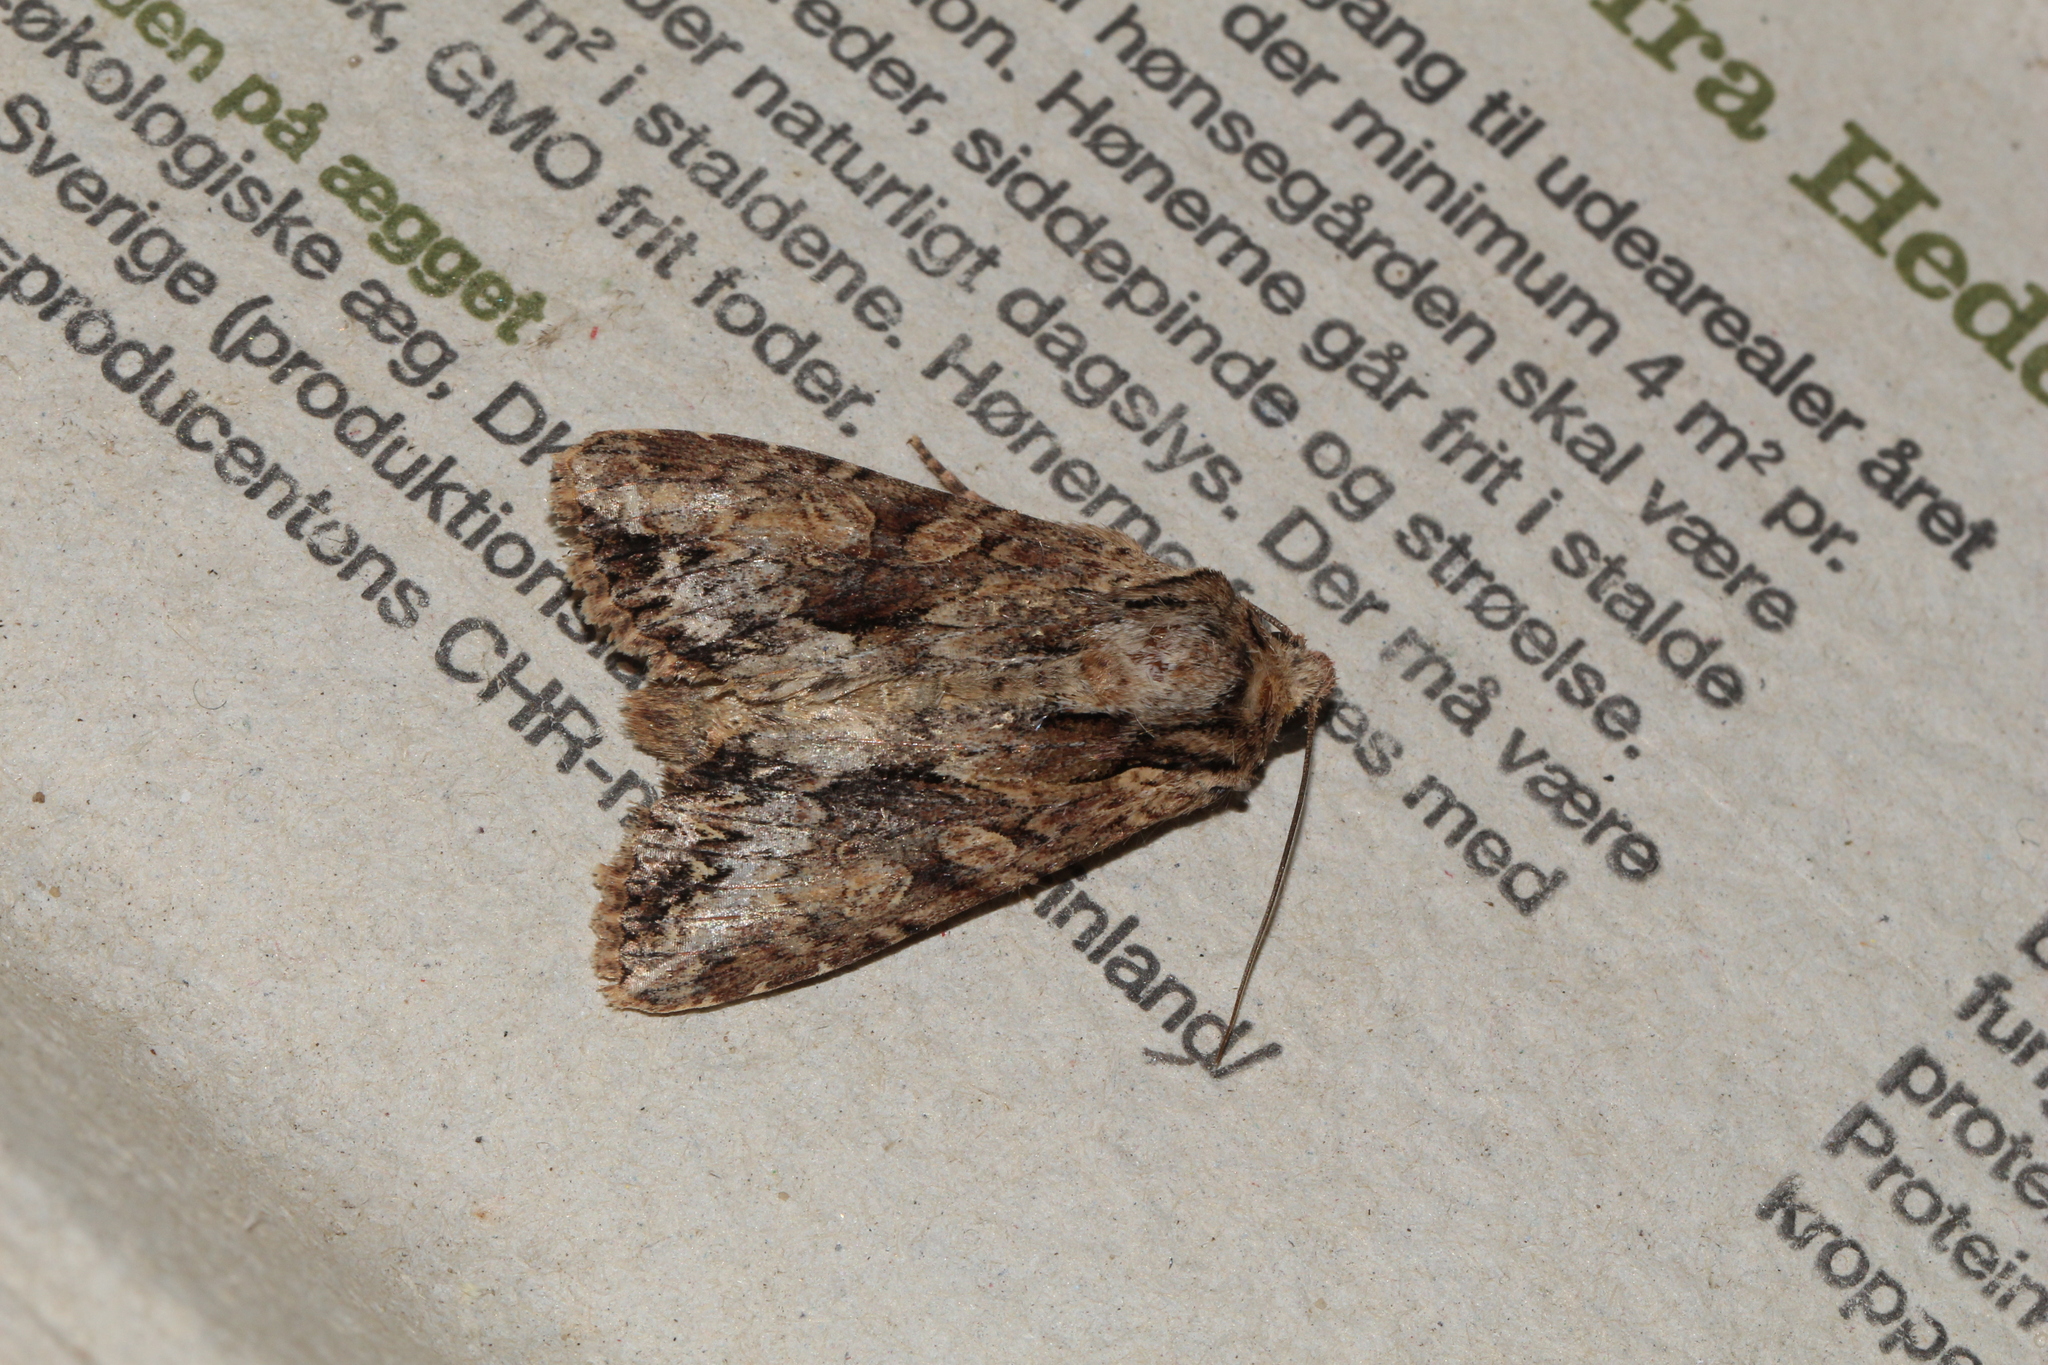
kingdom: Animalia
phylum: Arthropoda
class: Insecta
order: Lepidoptera
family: Noctuidae
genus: Apamea
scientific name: Apamea monoglypha
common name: Dark arches
